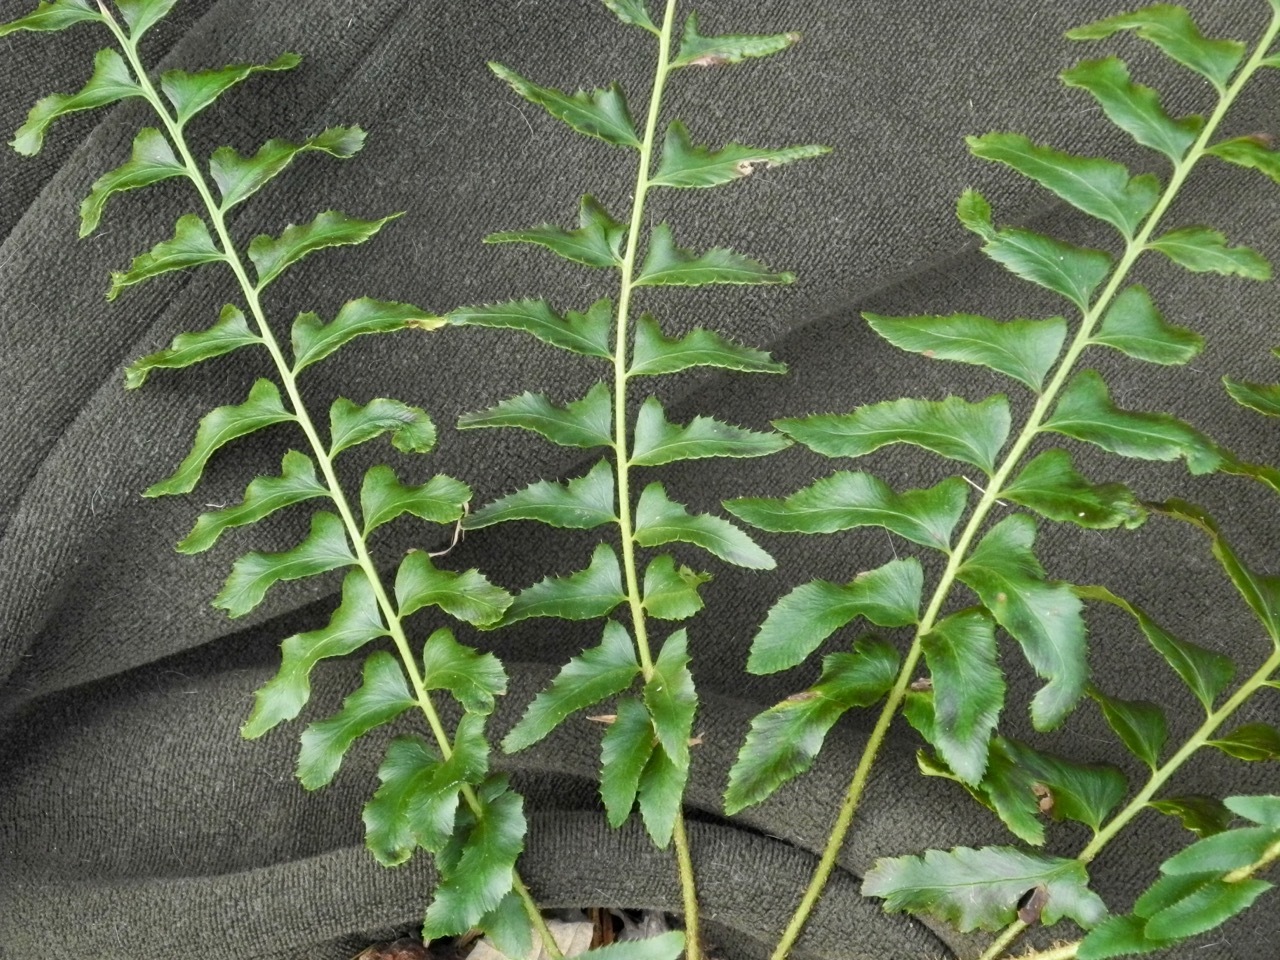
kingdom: Plantae
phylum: Tracheophyta
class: Polypodiopsida
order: Polypodiales
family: Dryopteridaceae
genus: Polystichum
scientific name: Polystichum acrostichoides
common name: Christmas fern
